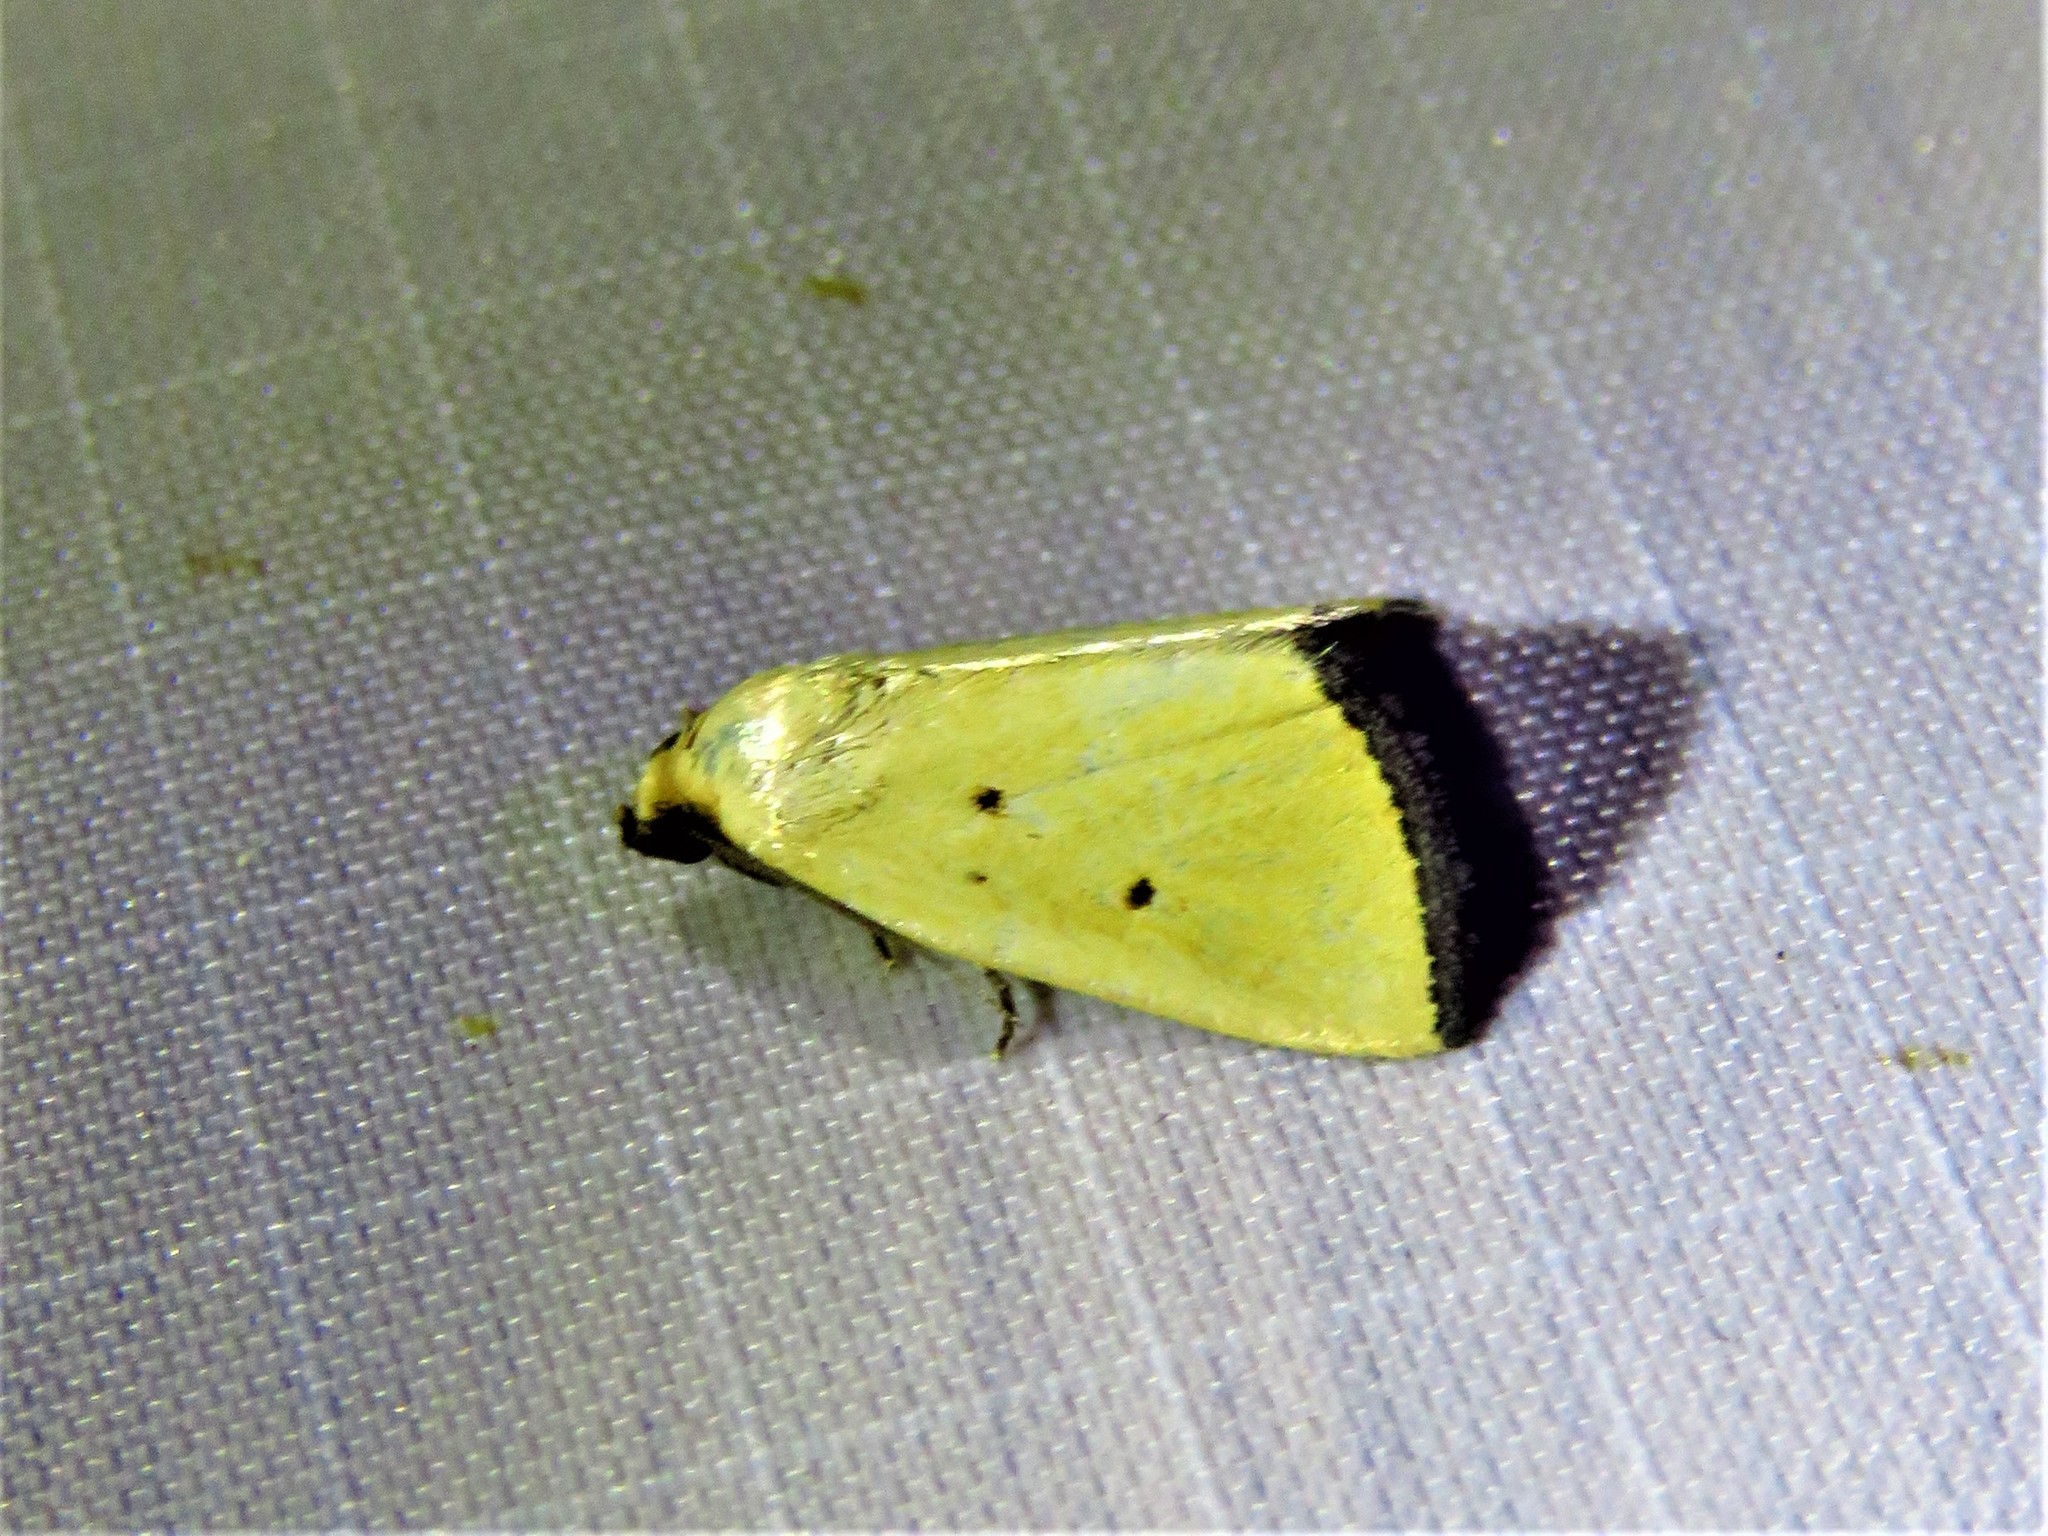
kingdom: Animalia
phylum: Arthropoda
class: Insecta
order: Lepidoptera
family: Noctuidae
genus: Marimatha
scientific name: Marimatha nigrofimbria
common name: Black-bordered lemon moth
